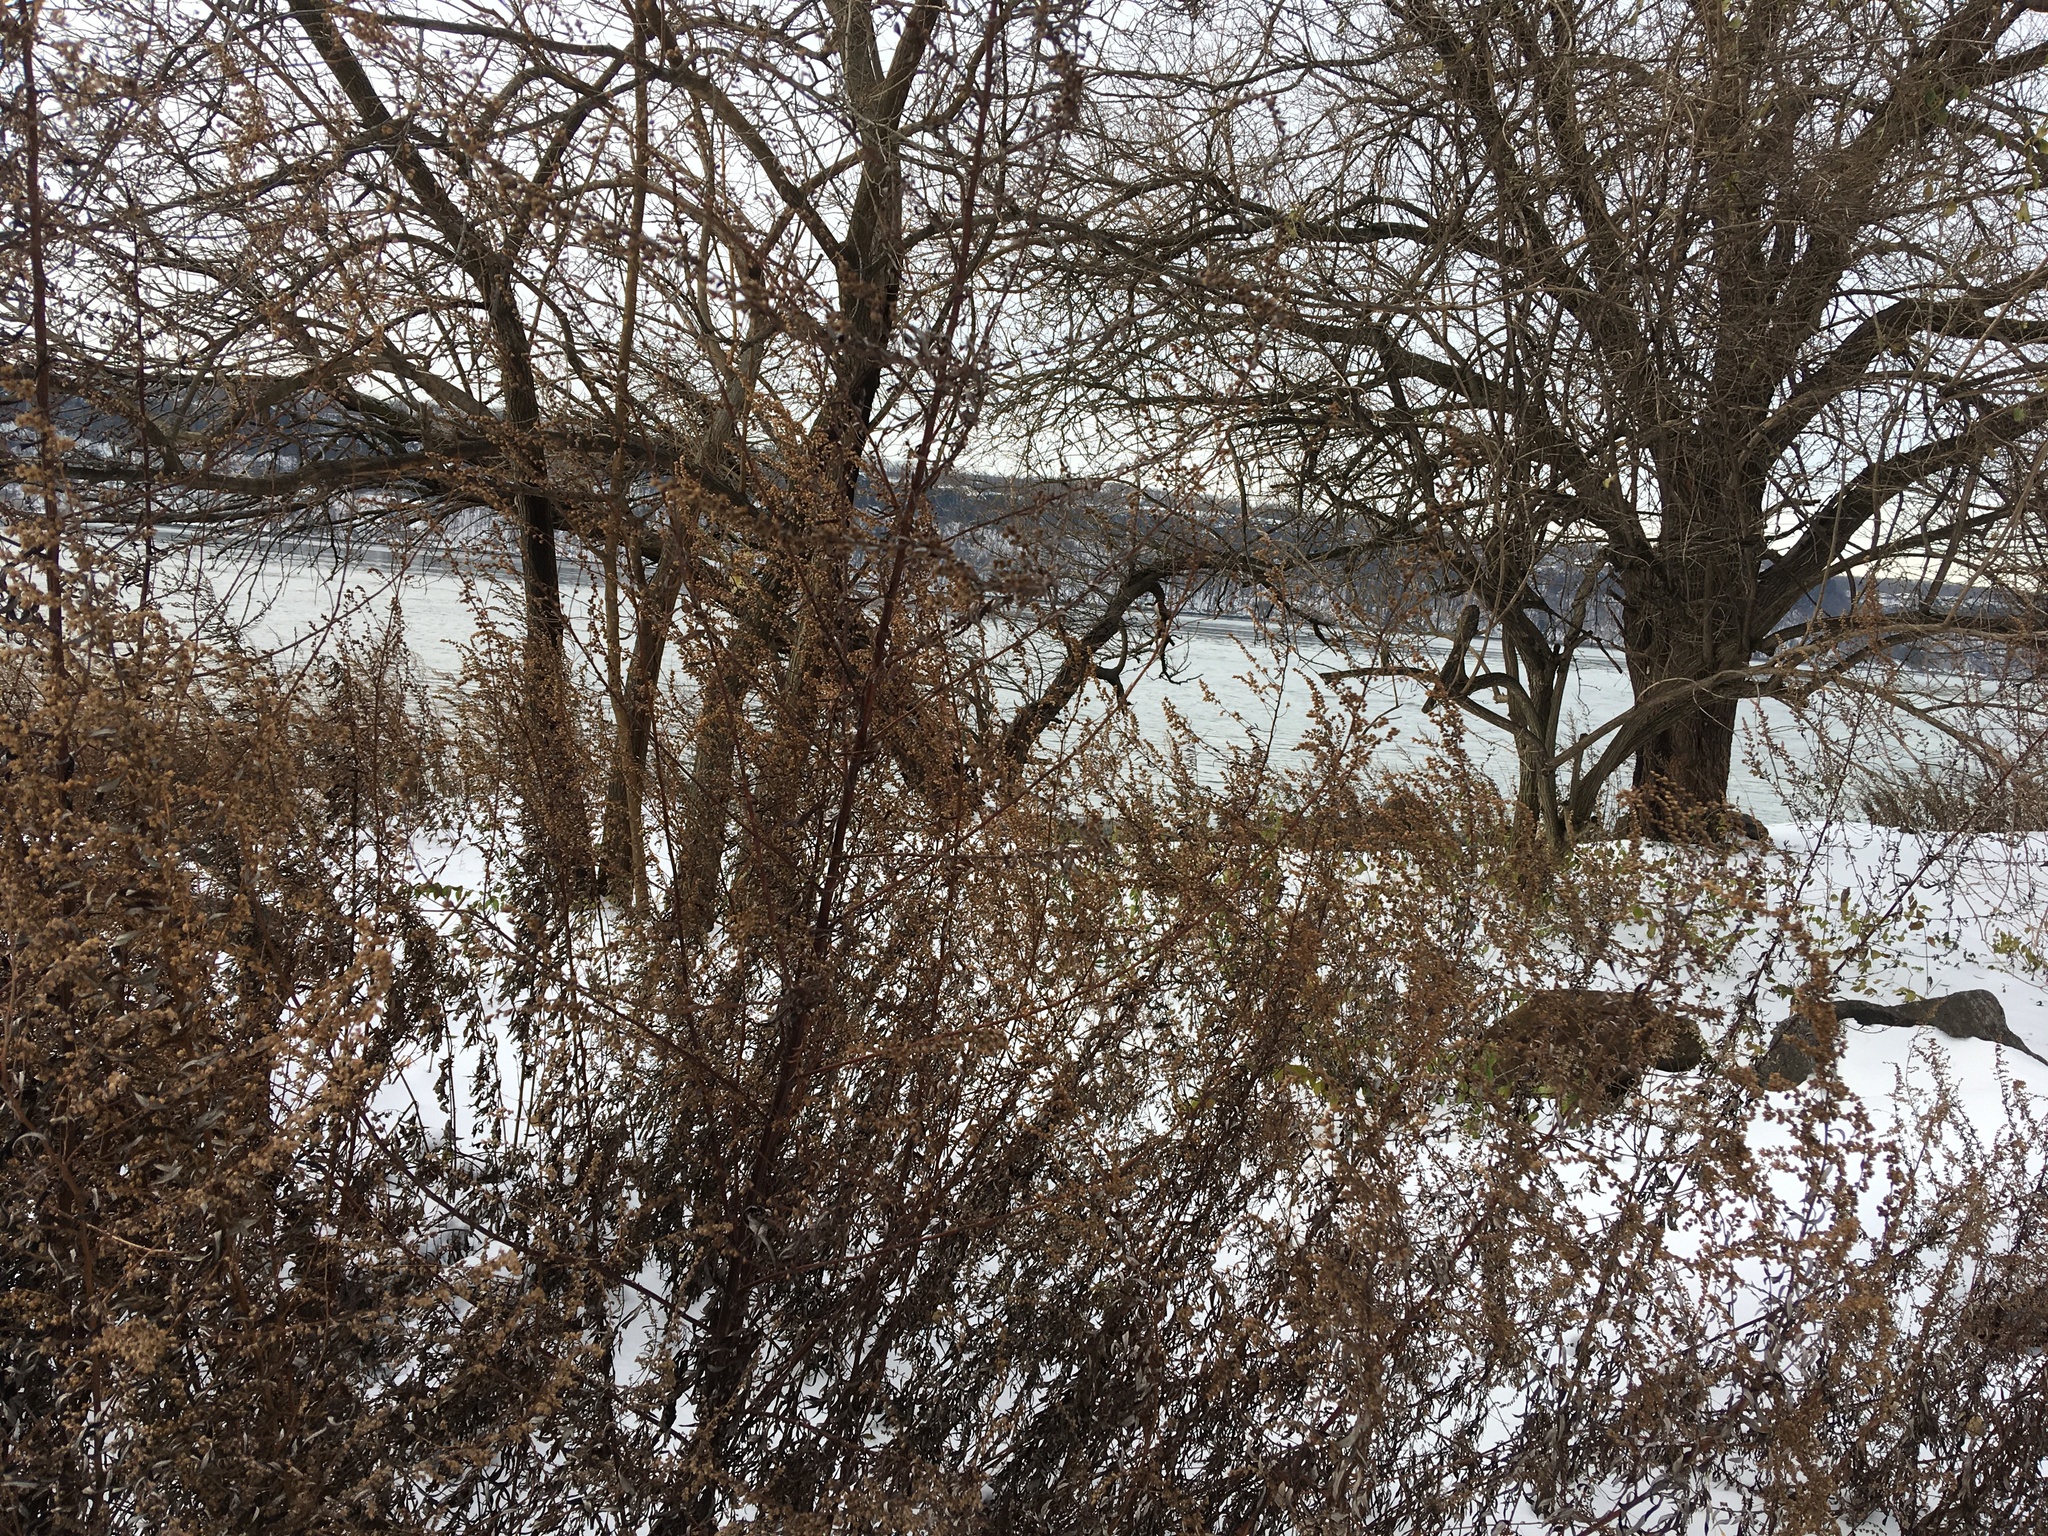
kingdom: Plantae
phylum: Tracheophyta
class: Magnoliopsida
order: Asterales
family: Asteraceae
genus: Artemisia
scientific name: Artemisia vulgaris
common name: Mugwort
